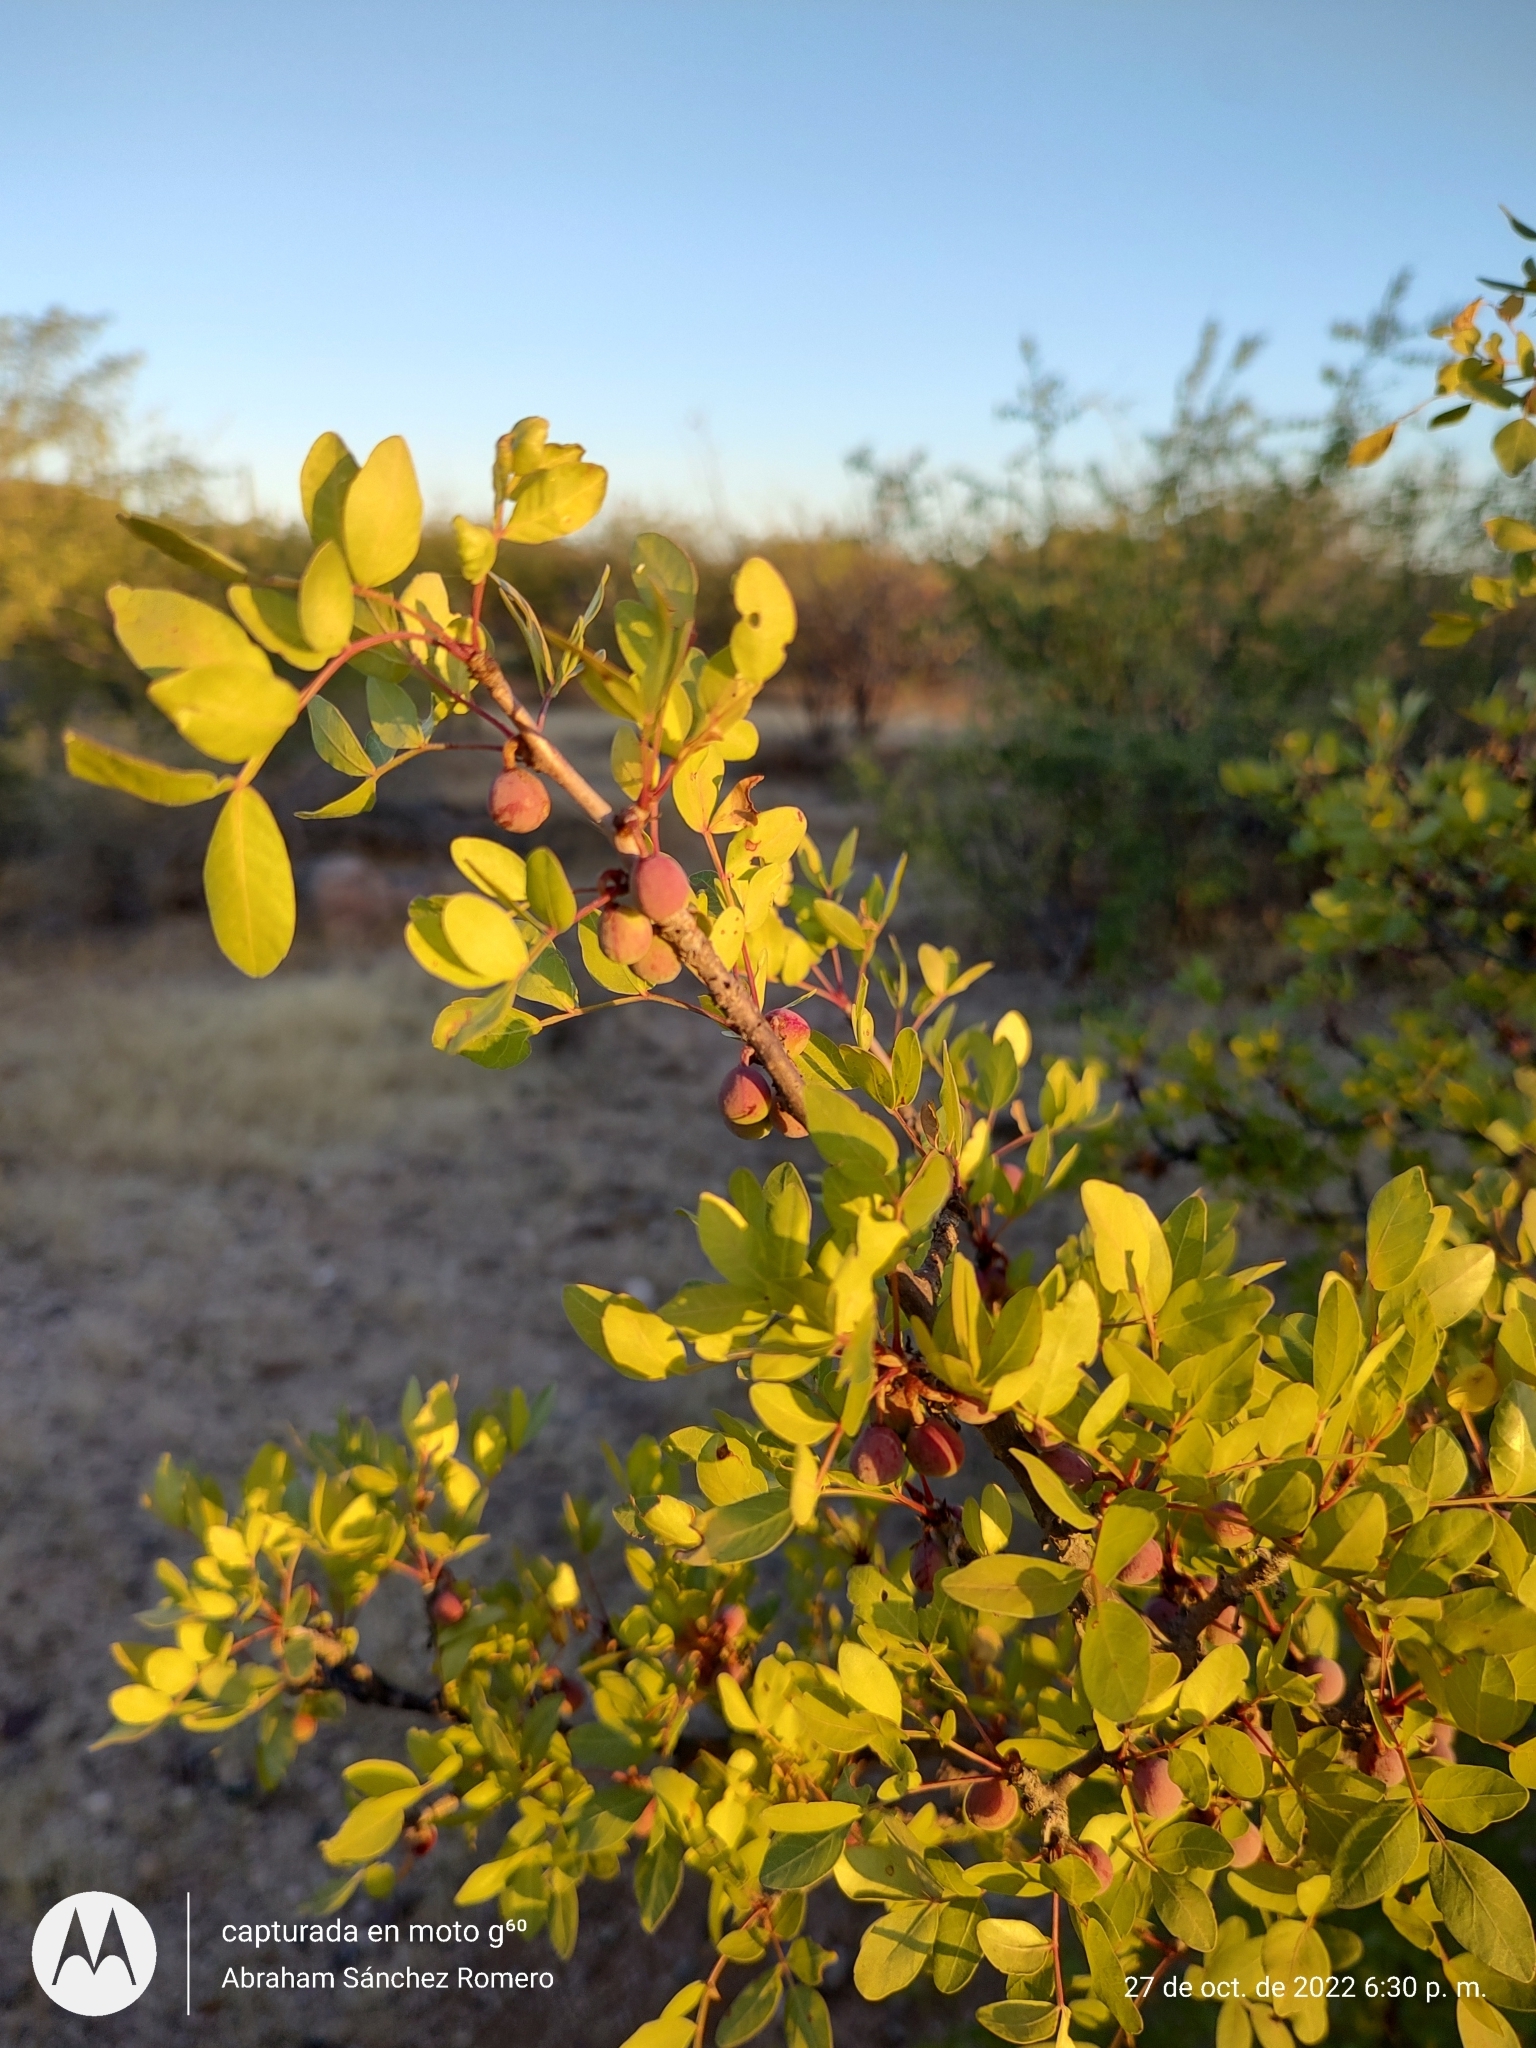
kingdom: Plantae
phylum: Tracheophyta
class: Magnoliopsida
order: Sapindales
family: Burseraceae
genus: Bursera
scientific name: Bursera fagaroides
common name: Elephant tree
